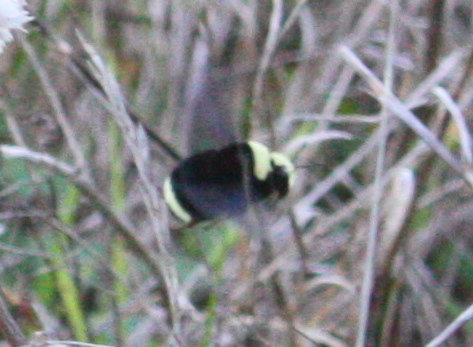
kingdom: Animalia
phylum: Arthropoda
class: Insecta
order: Hymenoptera
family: Apidae
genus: Bombus
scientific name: Bombus vosnesenskii
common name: Vosnesensky bumble bee
